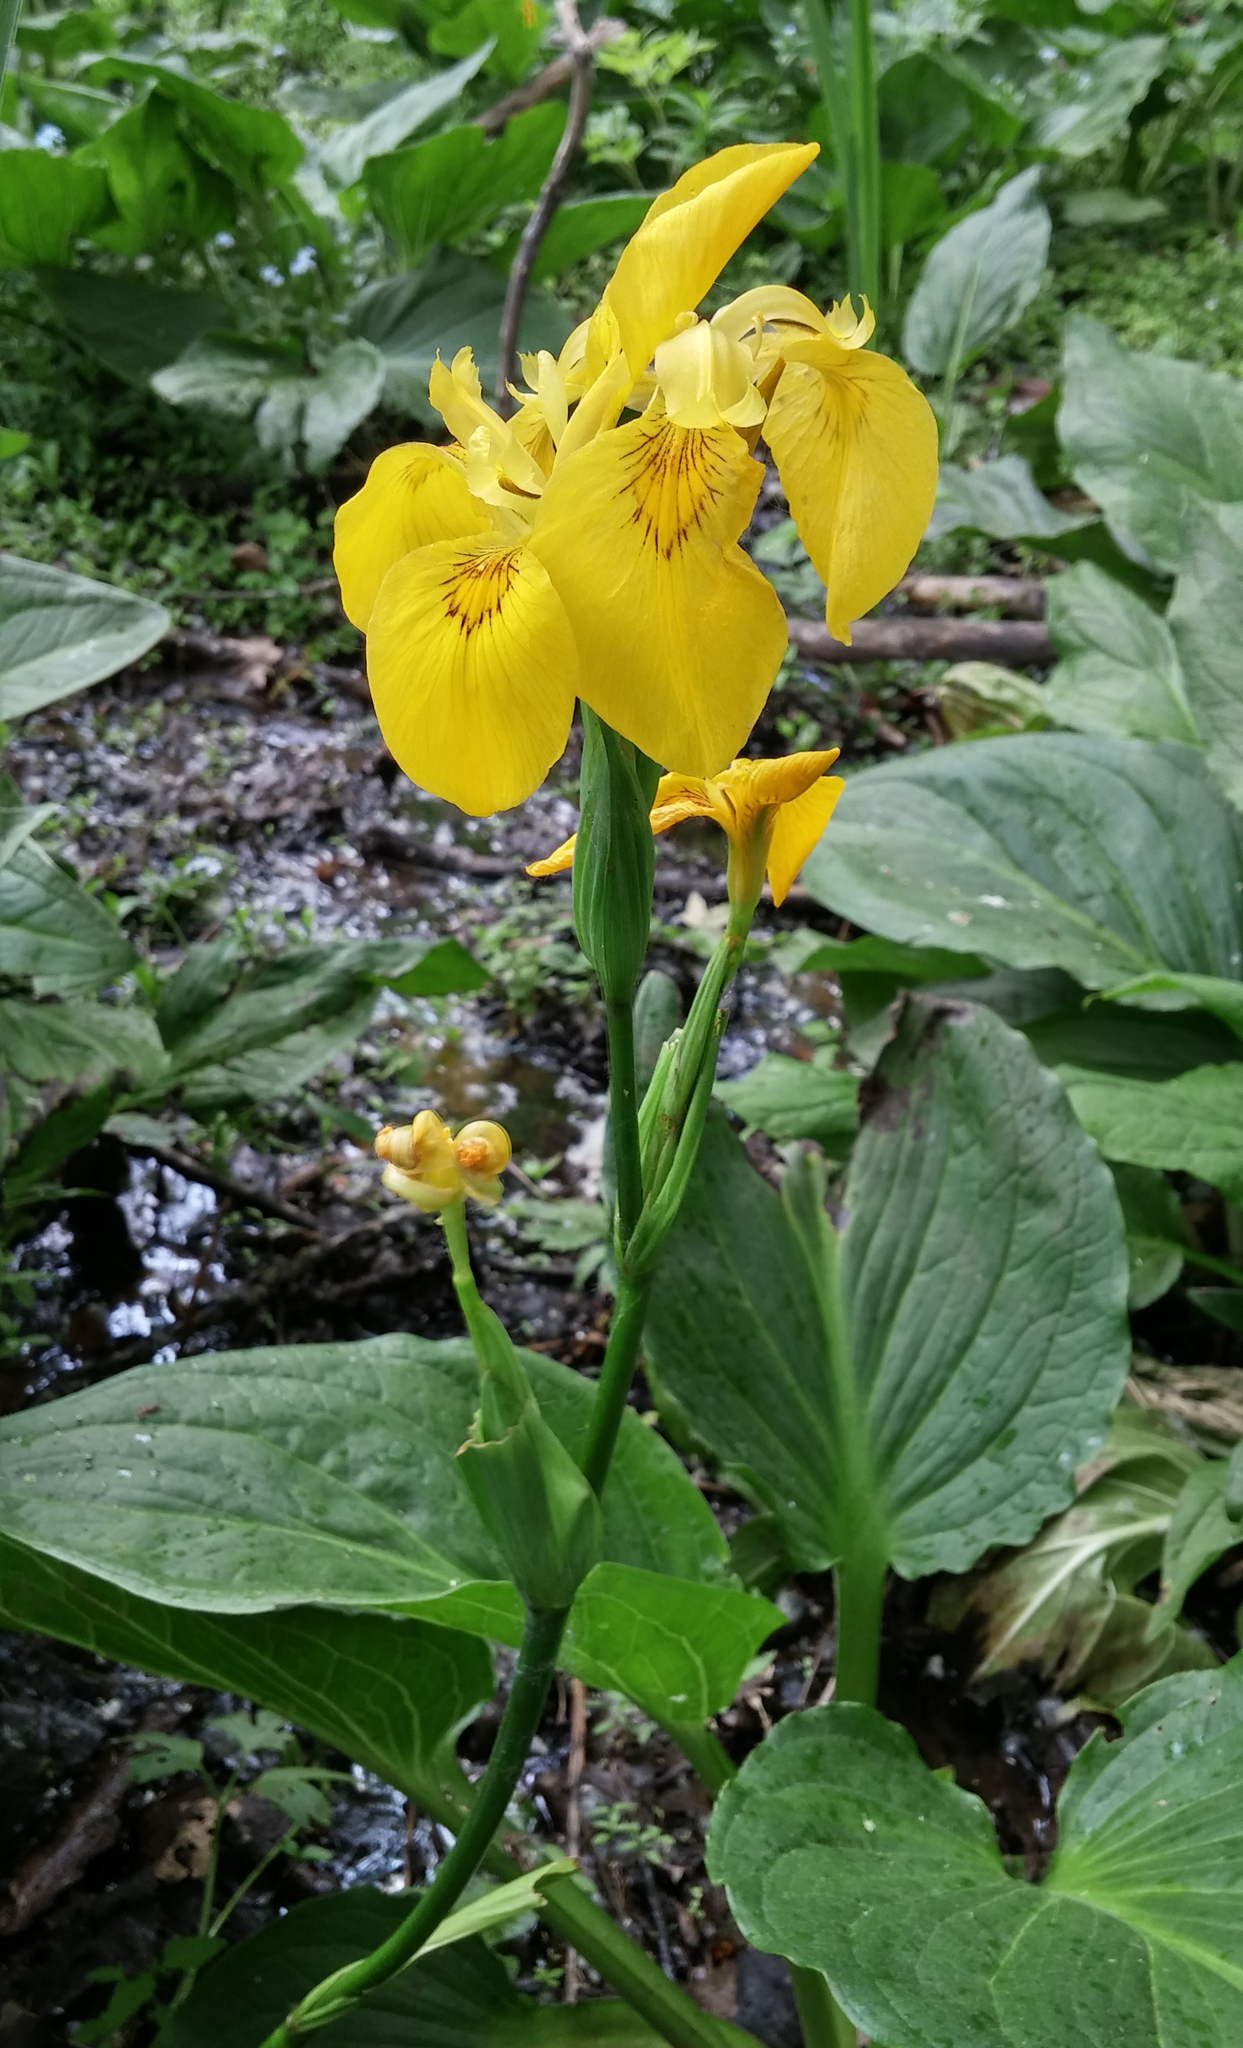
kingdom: Plantae
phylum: Tracheophyta
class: Liliopsida
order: Asparagales
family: Iridaceae
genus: Iris
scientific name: Iris pseudacorus
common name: Yellow flag
